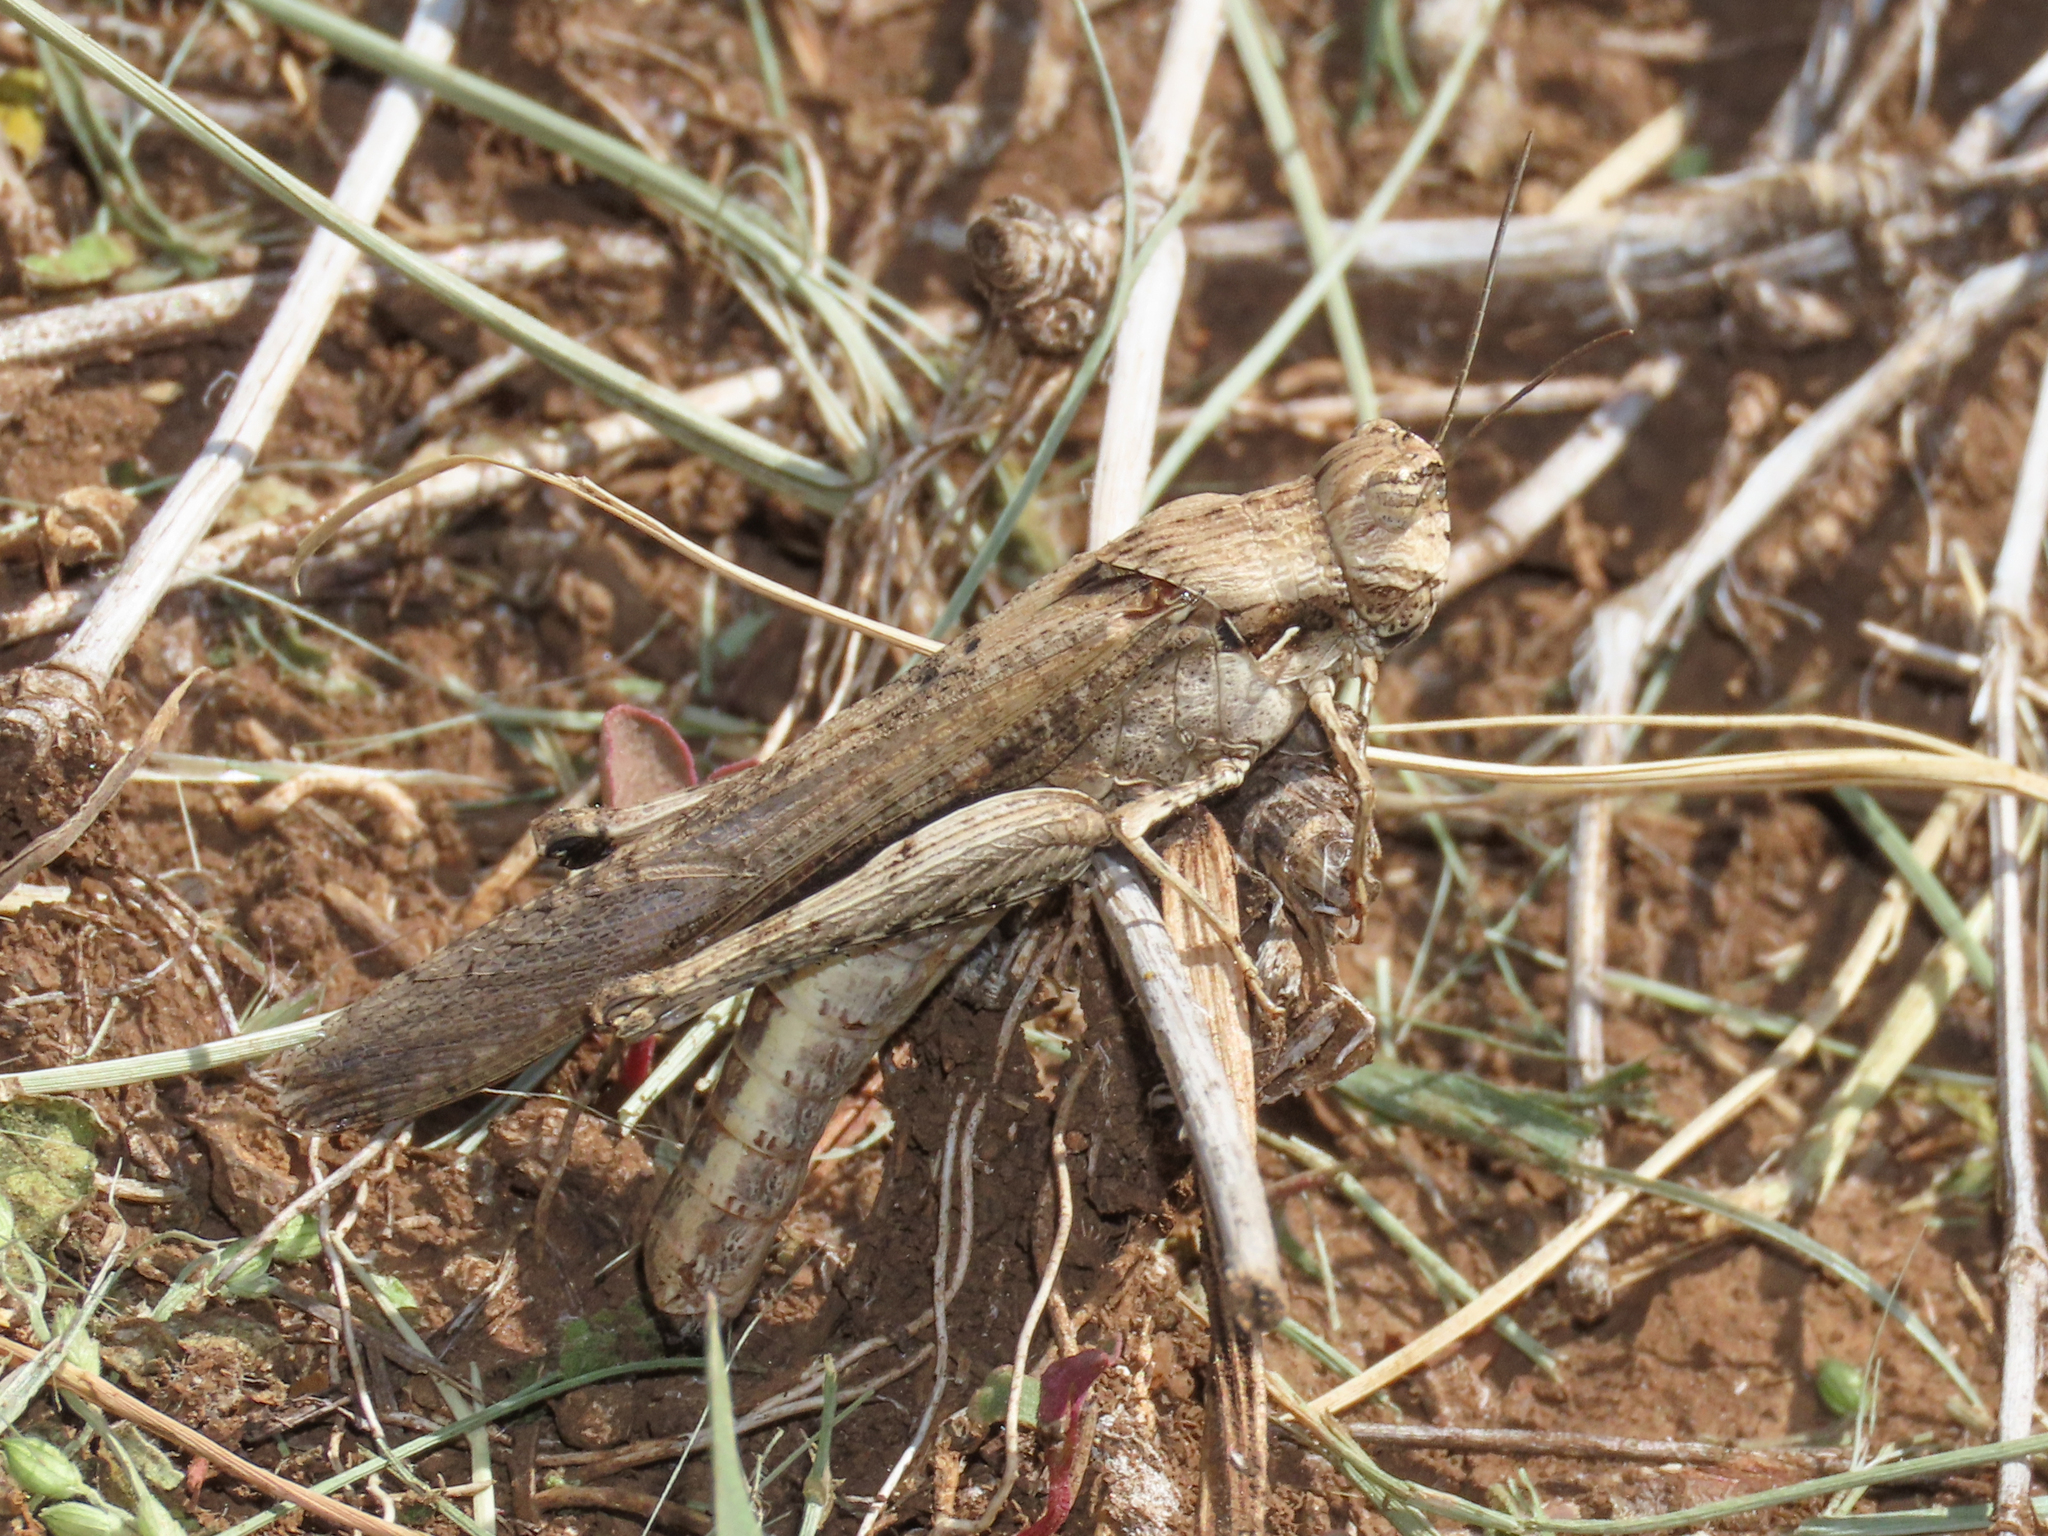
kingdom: Animalia
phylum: Arthropoda
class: Insecta
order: Orthoptera
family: Acrididae
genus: Morphacris
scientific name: Morphacris fasciata
